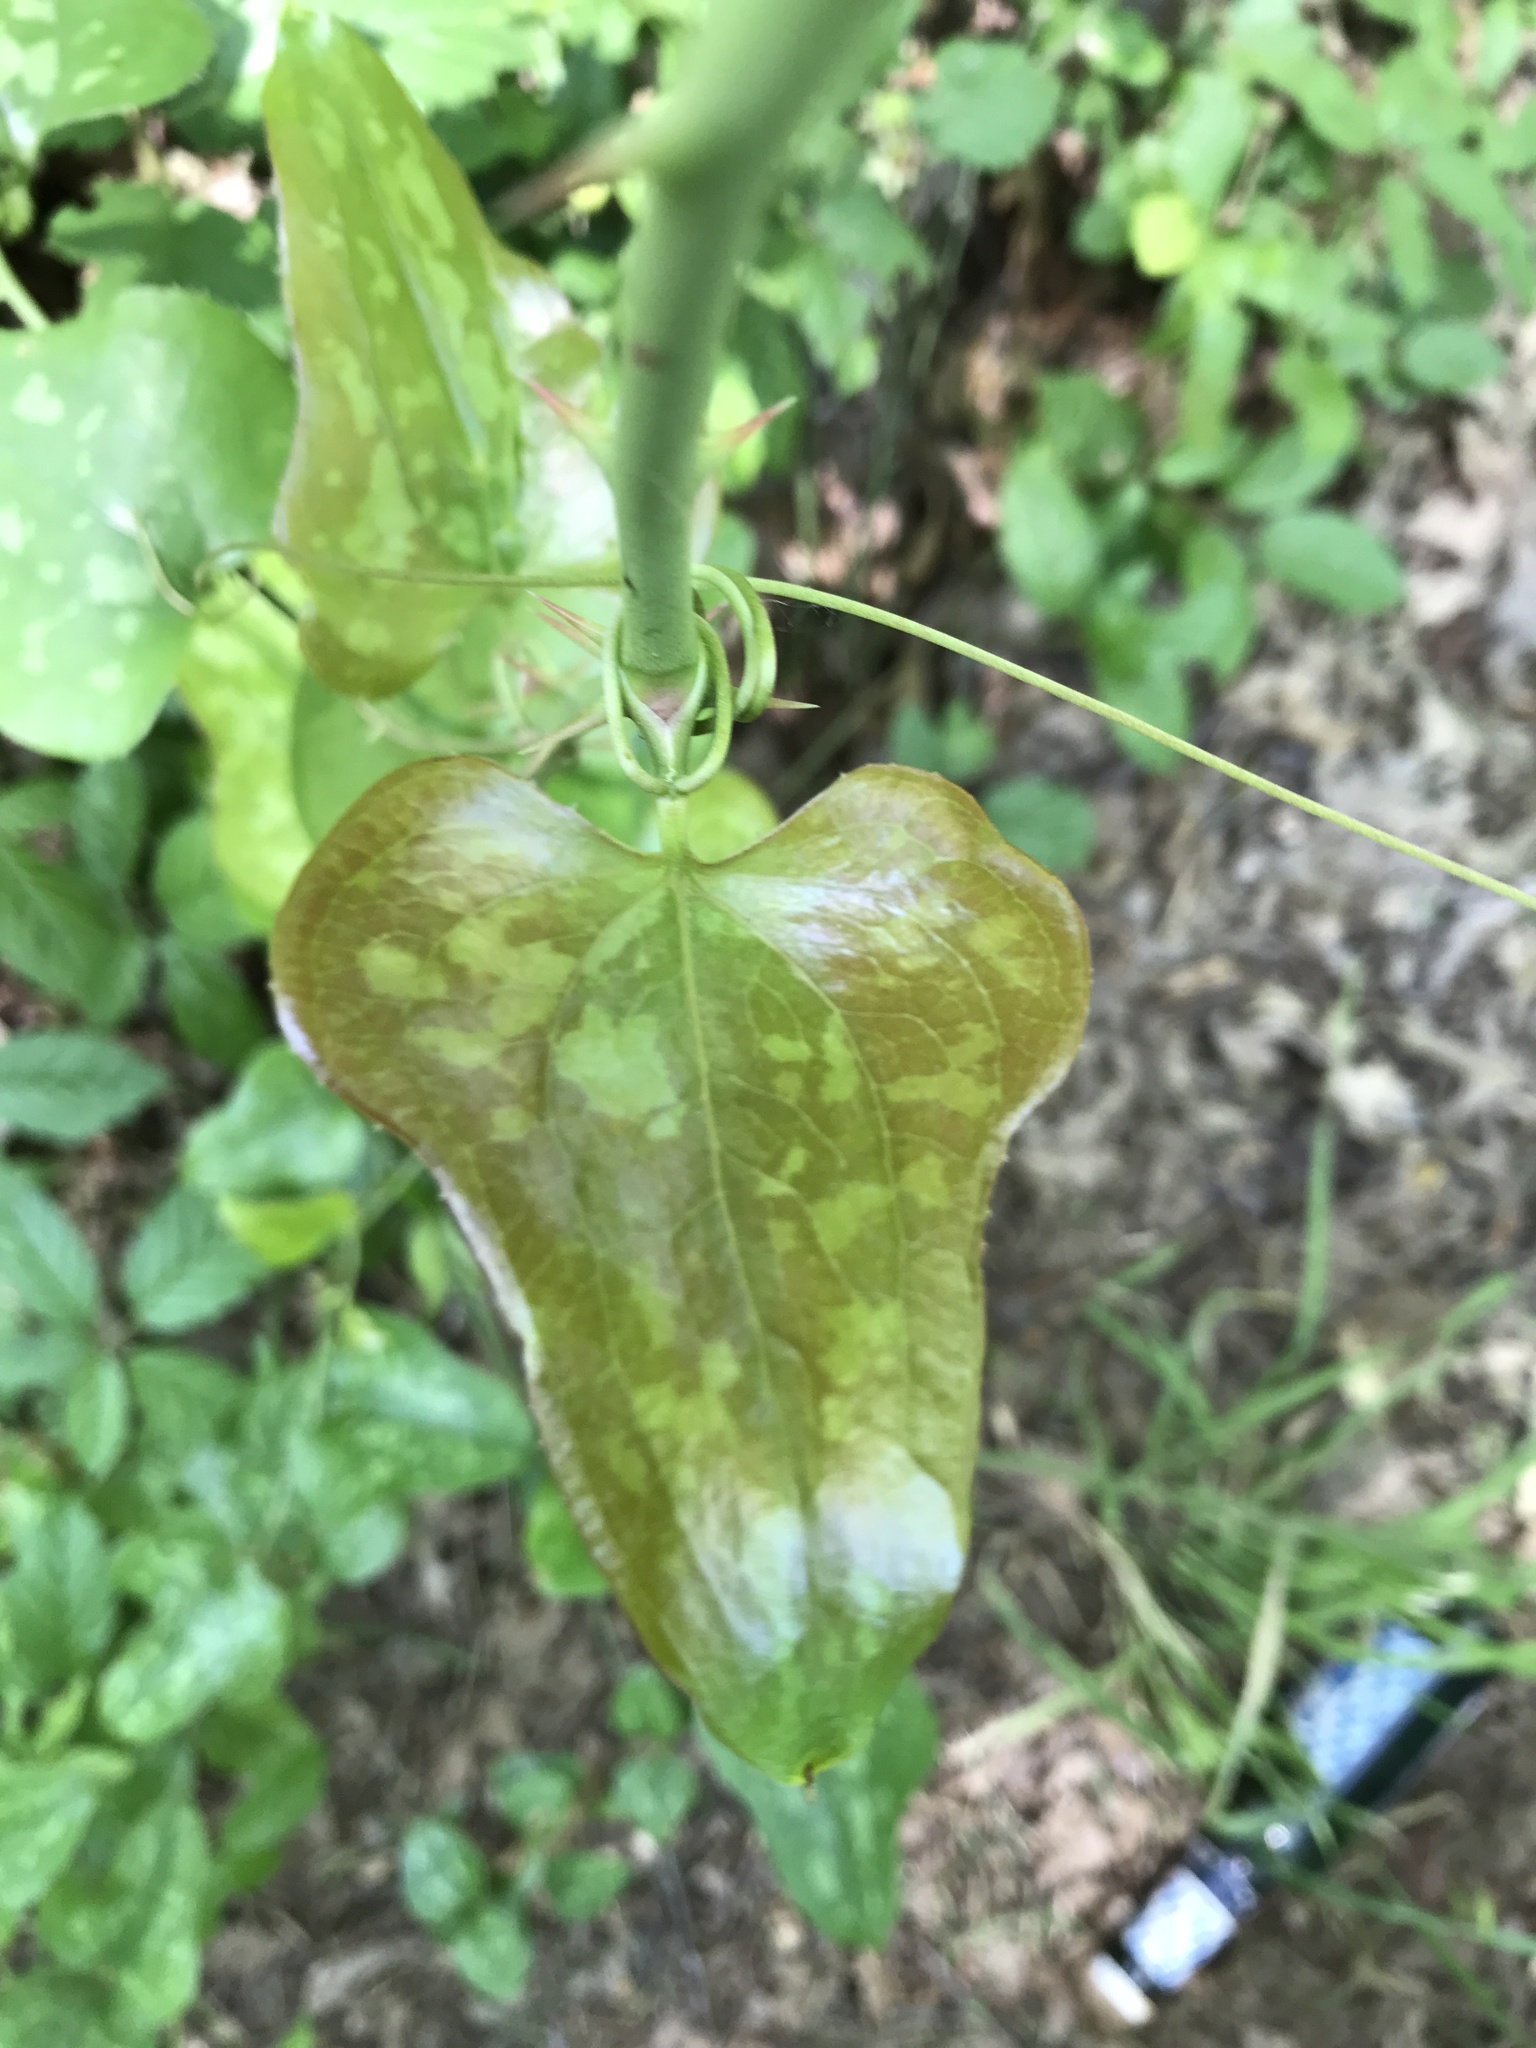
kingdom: Plantae
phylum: Tracheophyta
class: Liliopsida
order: Liliales
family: Smilacaceae
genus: Smilax
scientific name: Smilax bona-nox
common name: Catbrier
